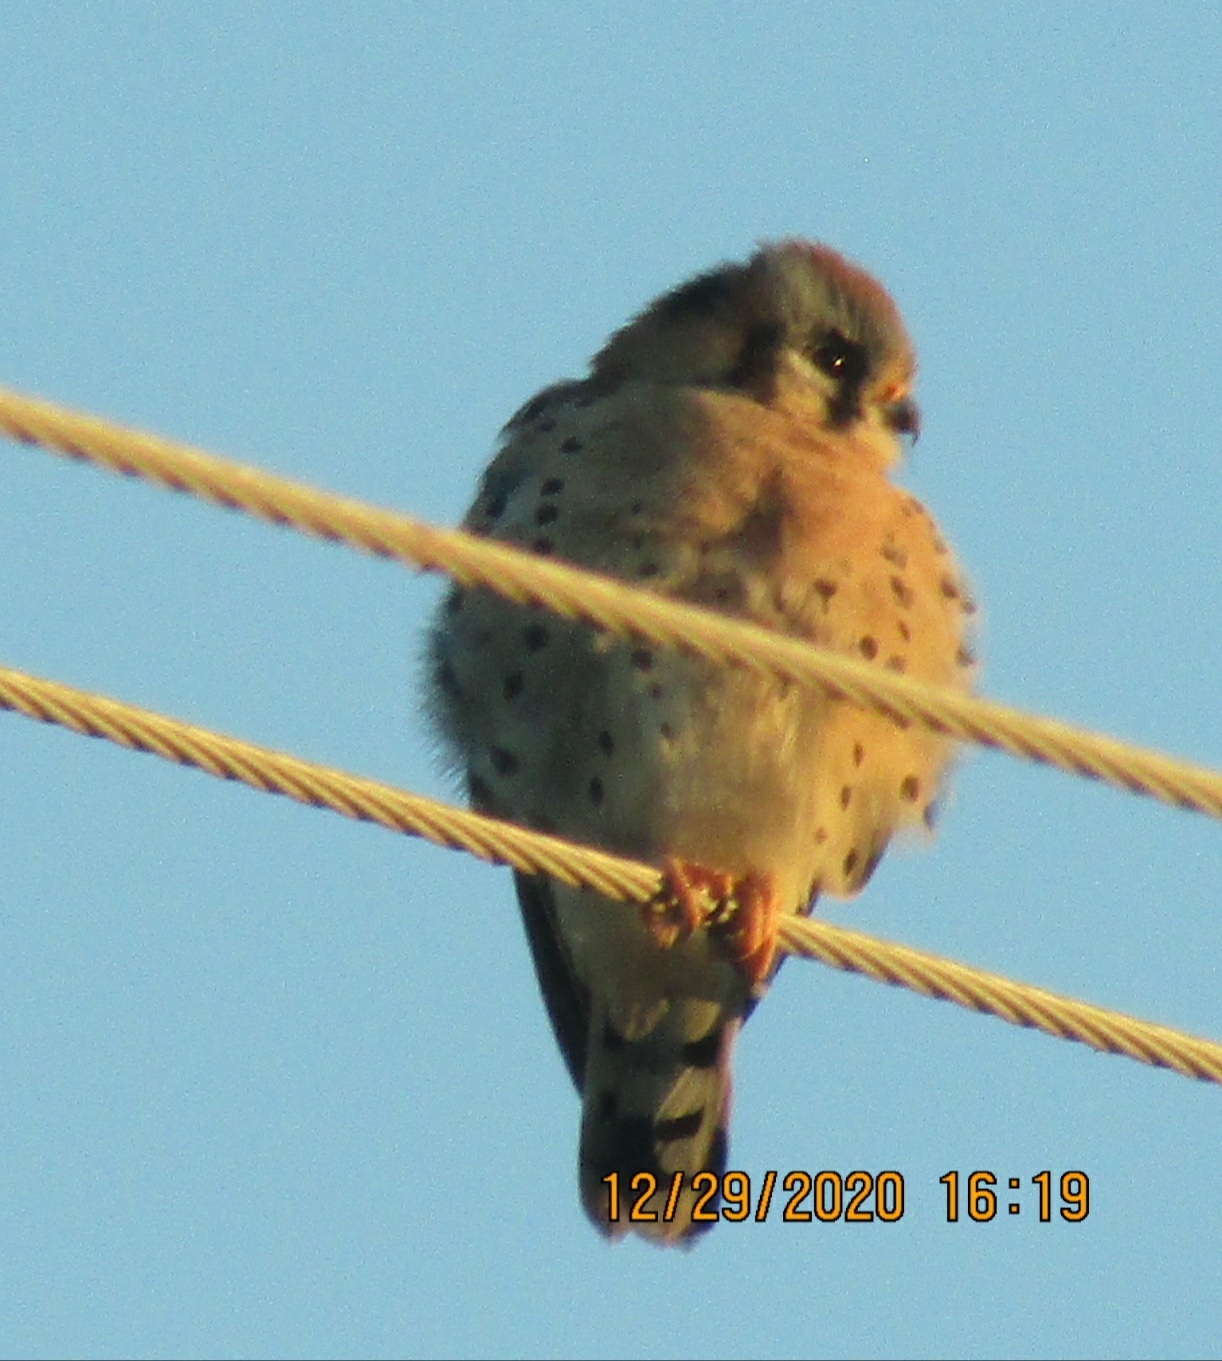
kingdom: Animalia
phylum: Chordata
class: Aves
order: Falconiformes
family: Falconidae
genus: Falco
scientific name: Falco sparverius
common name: American kestrel
